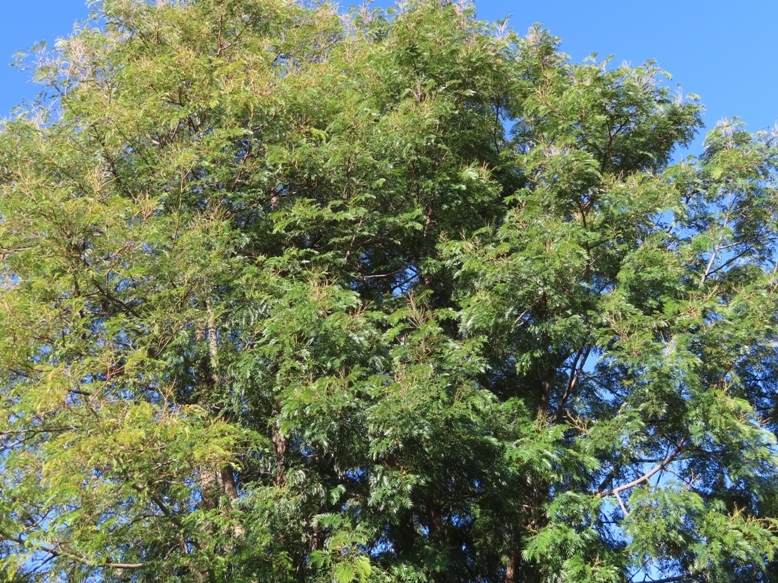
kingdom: Plantae
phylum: Tracheophyta
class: Magnoliopsida
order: Fabales
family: Fabaceae
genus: Acacia
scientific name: Acacia elata
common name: Cedar wattle
